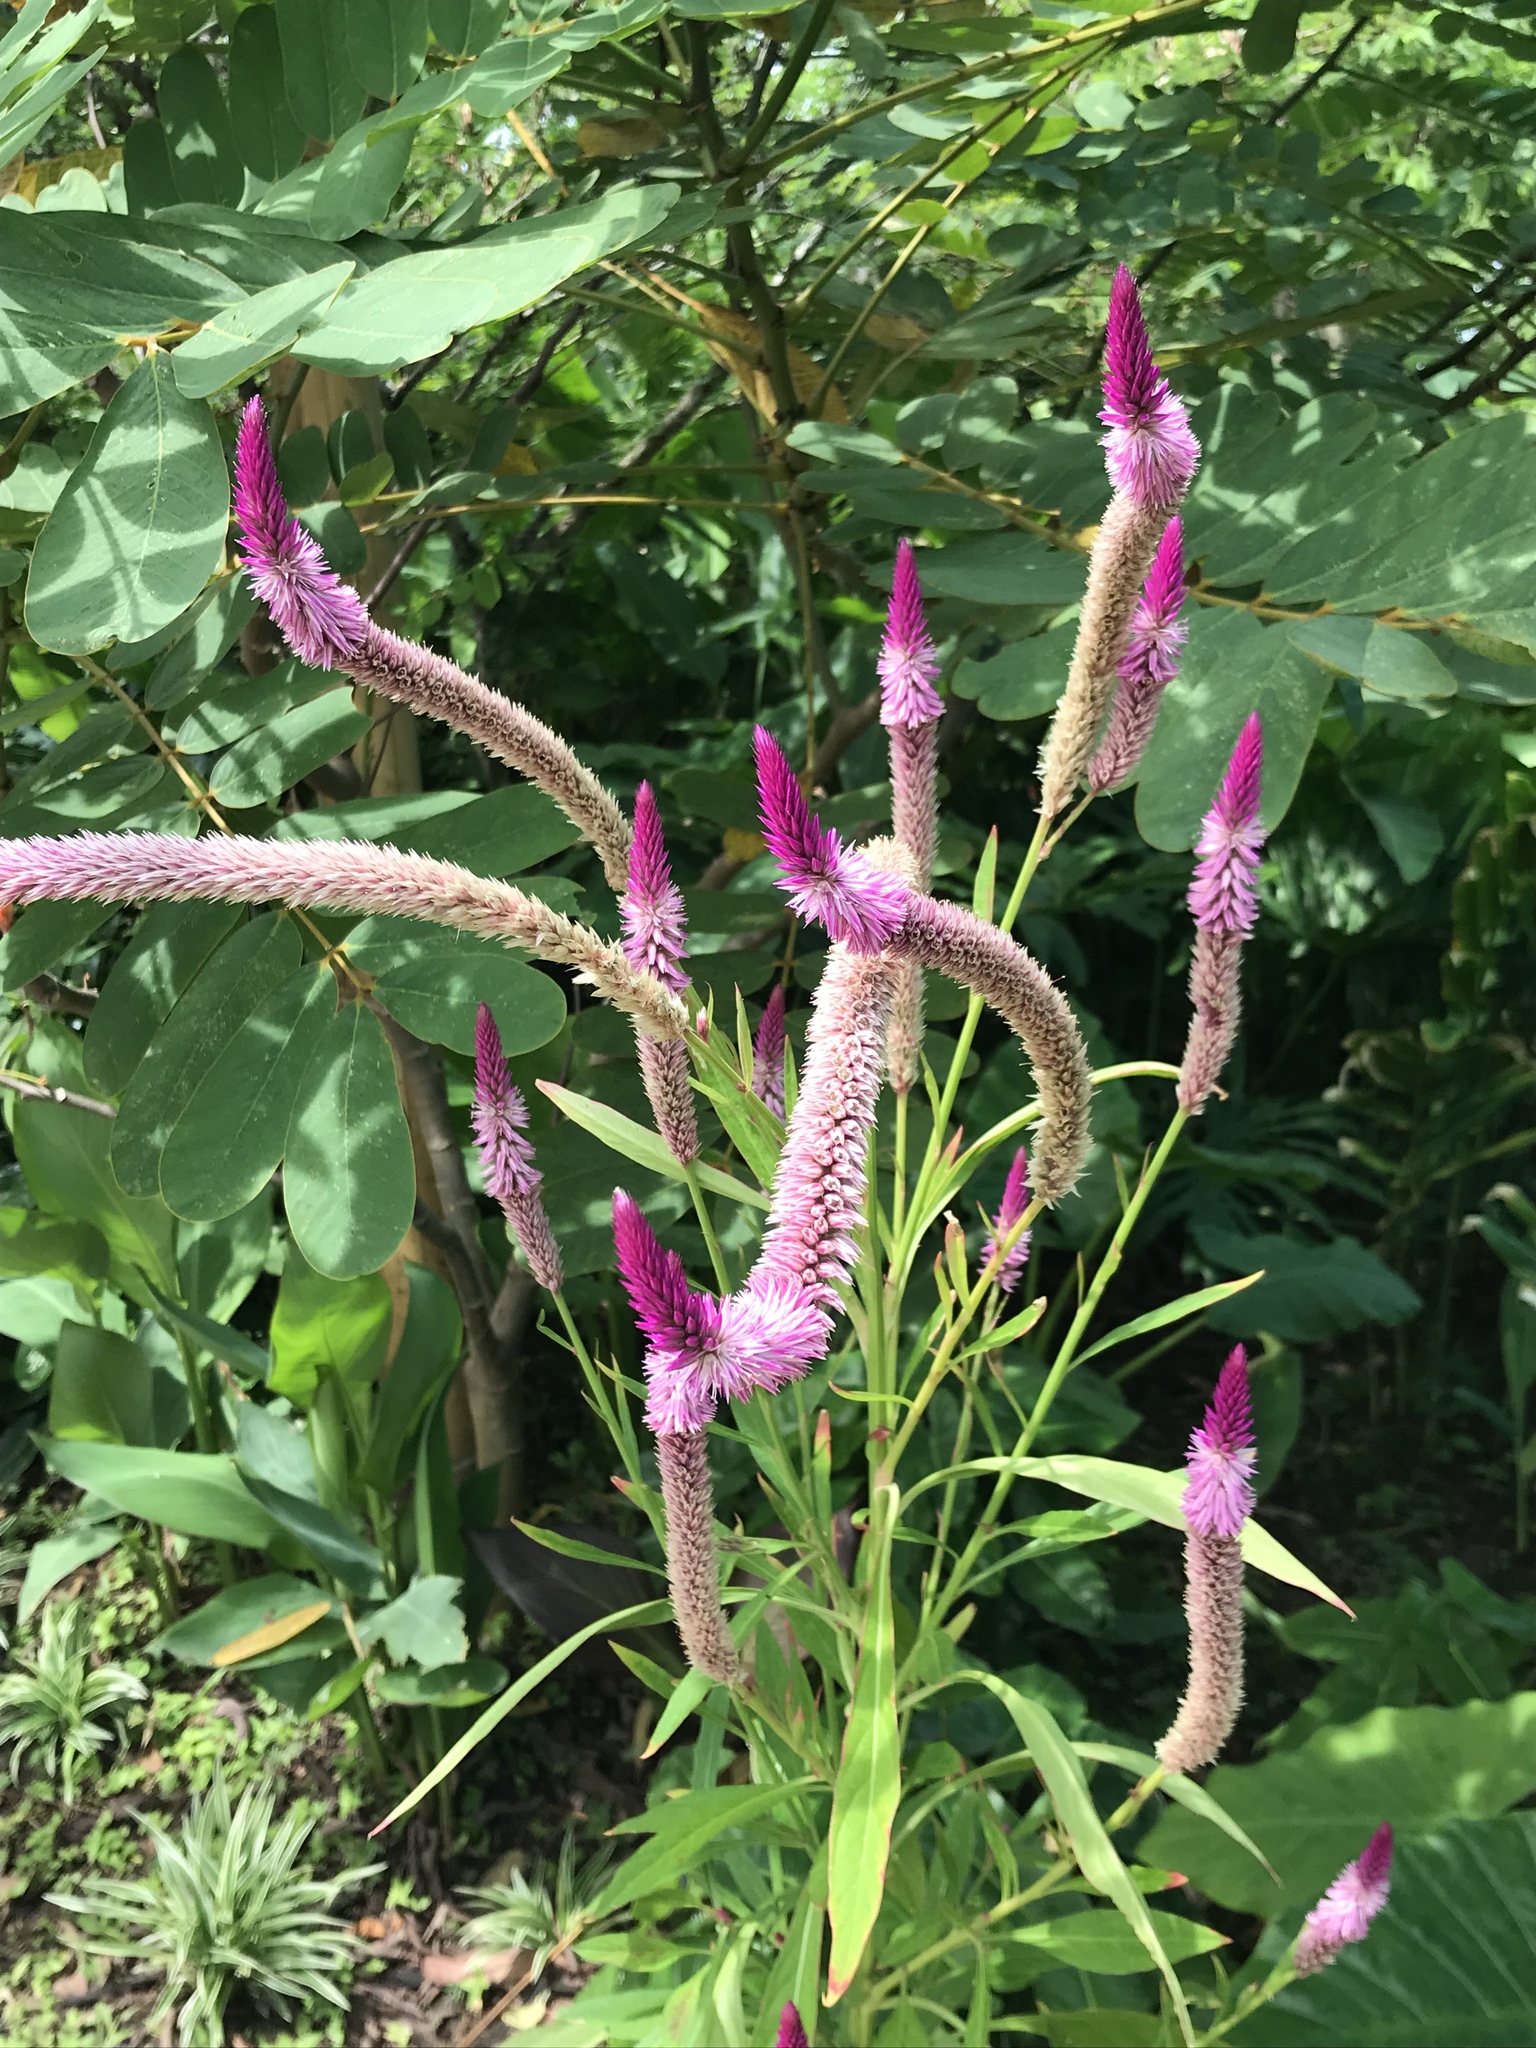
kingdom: Plantae
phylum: Tracheophyta
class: Magnoliopsida
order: Caryophyllales
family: Amaranthaceae
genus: Celosia
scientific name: Celosia argentea
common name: Feather cockscomb
